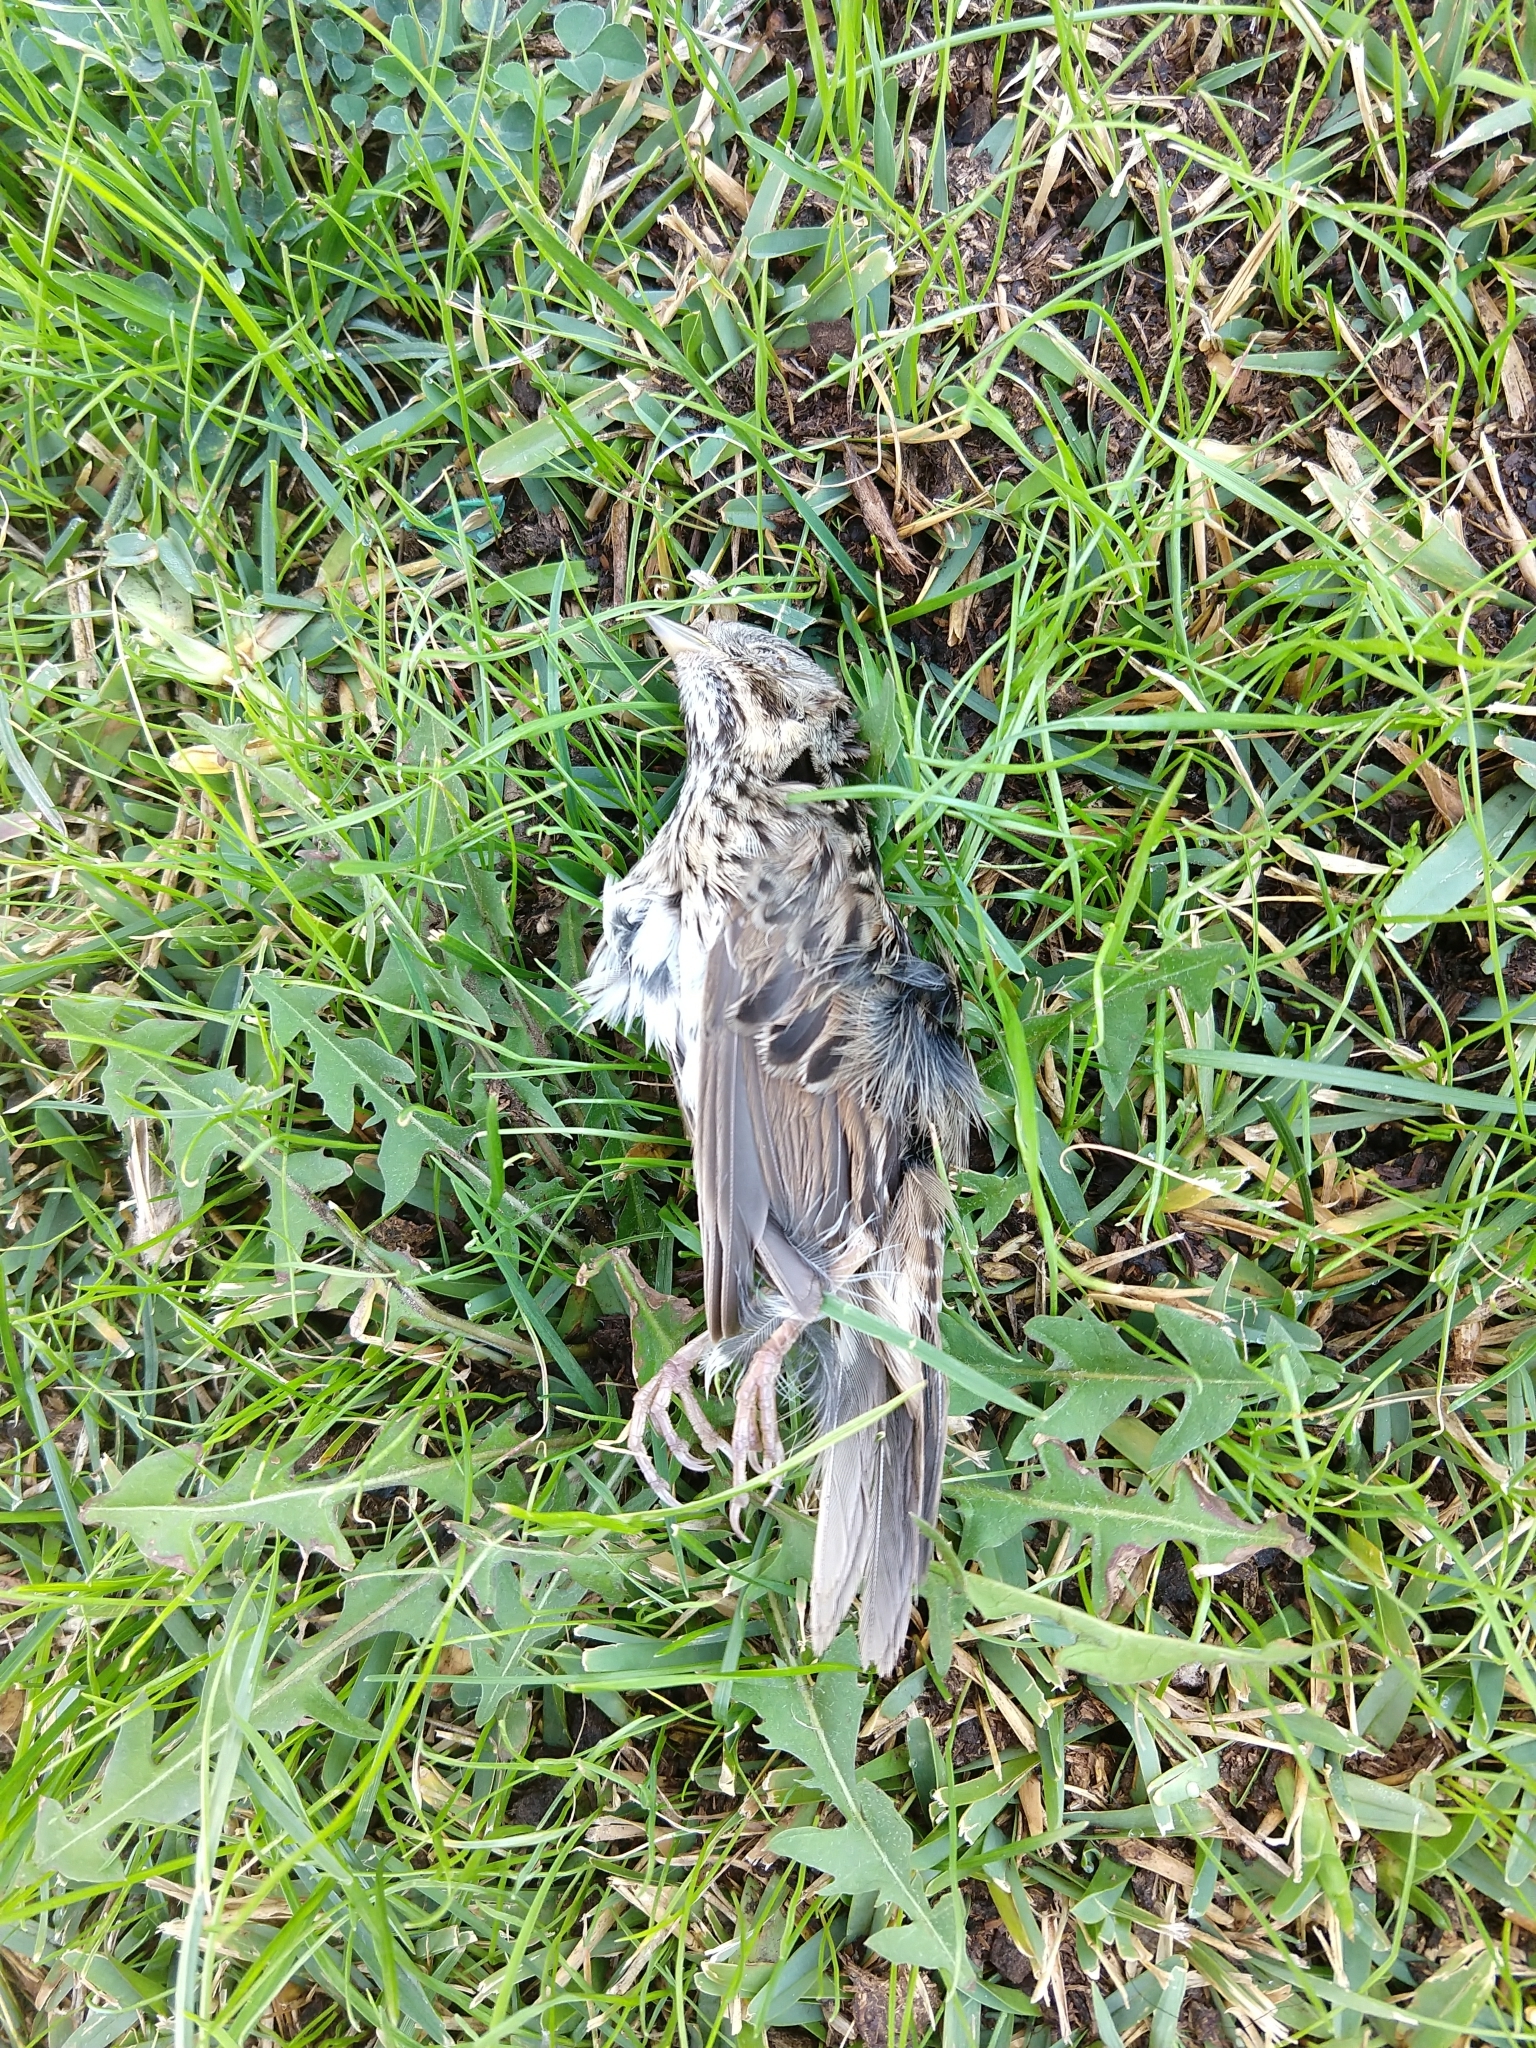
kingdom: Animalia
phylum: Chordata
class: Aves
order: Passeriformes
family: Passerellidae
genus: Melospiza
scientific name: Melospiza lincolnii
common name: Lincoln's sparrow
